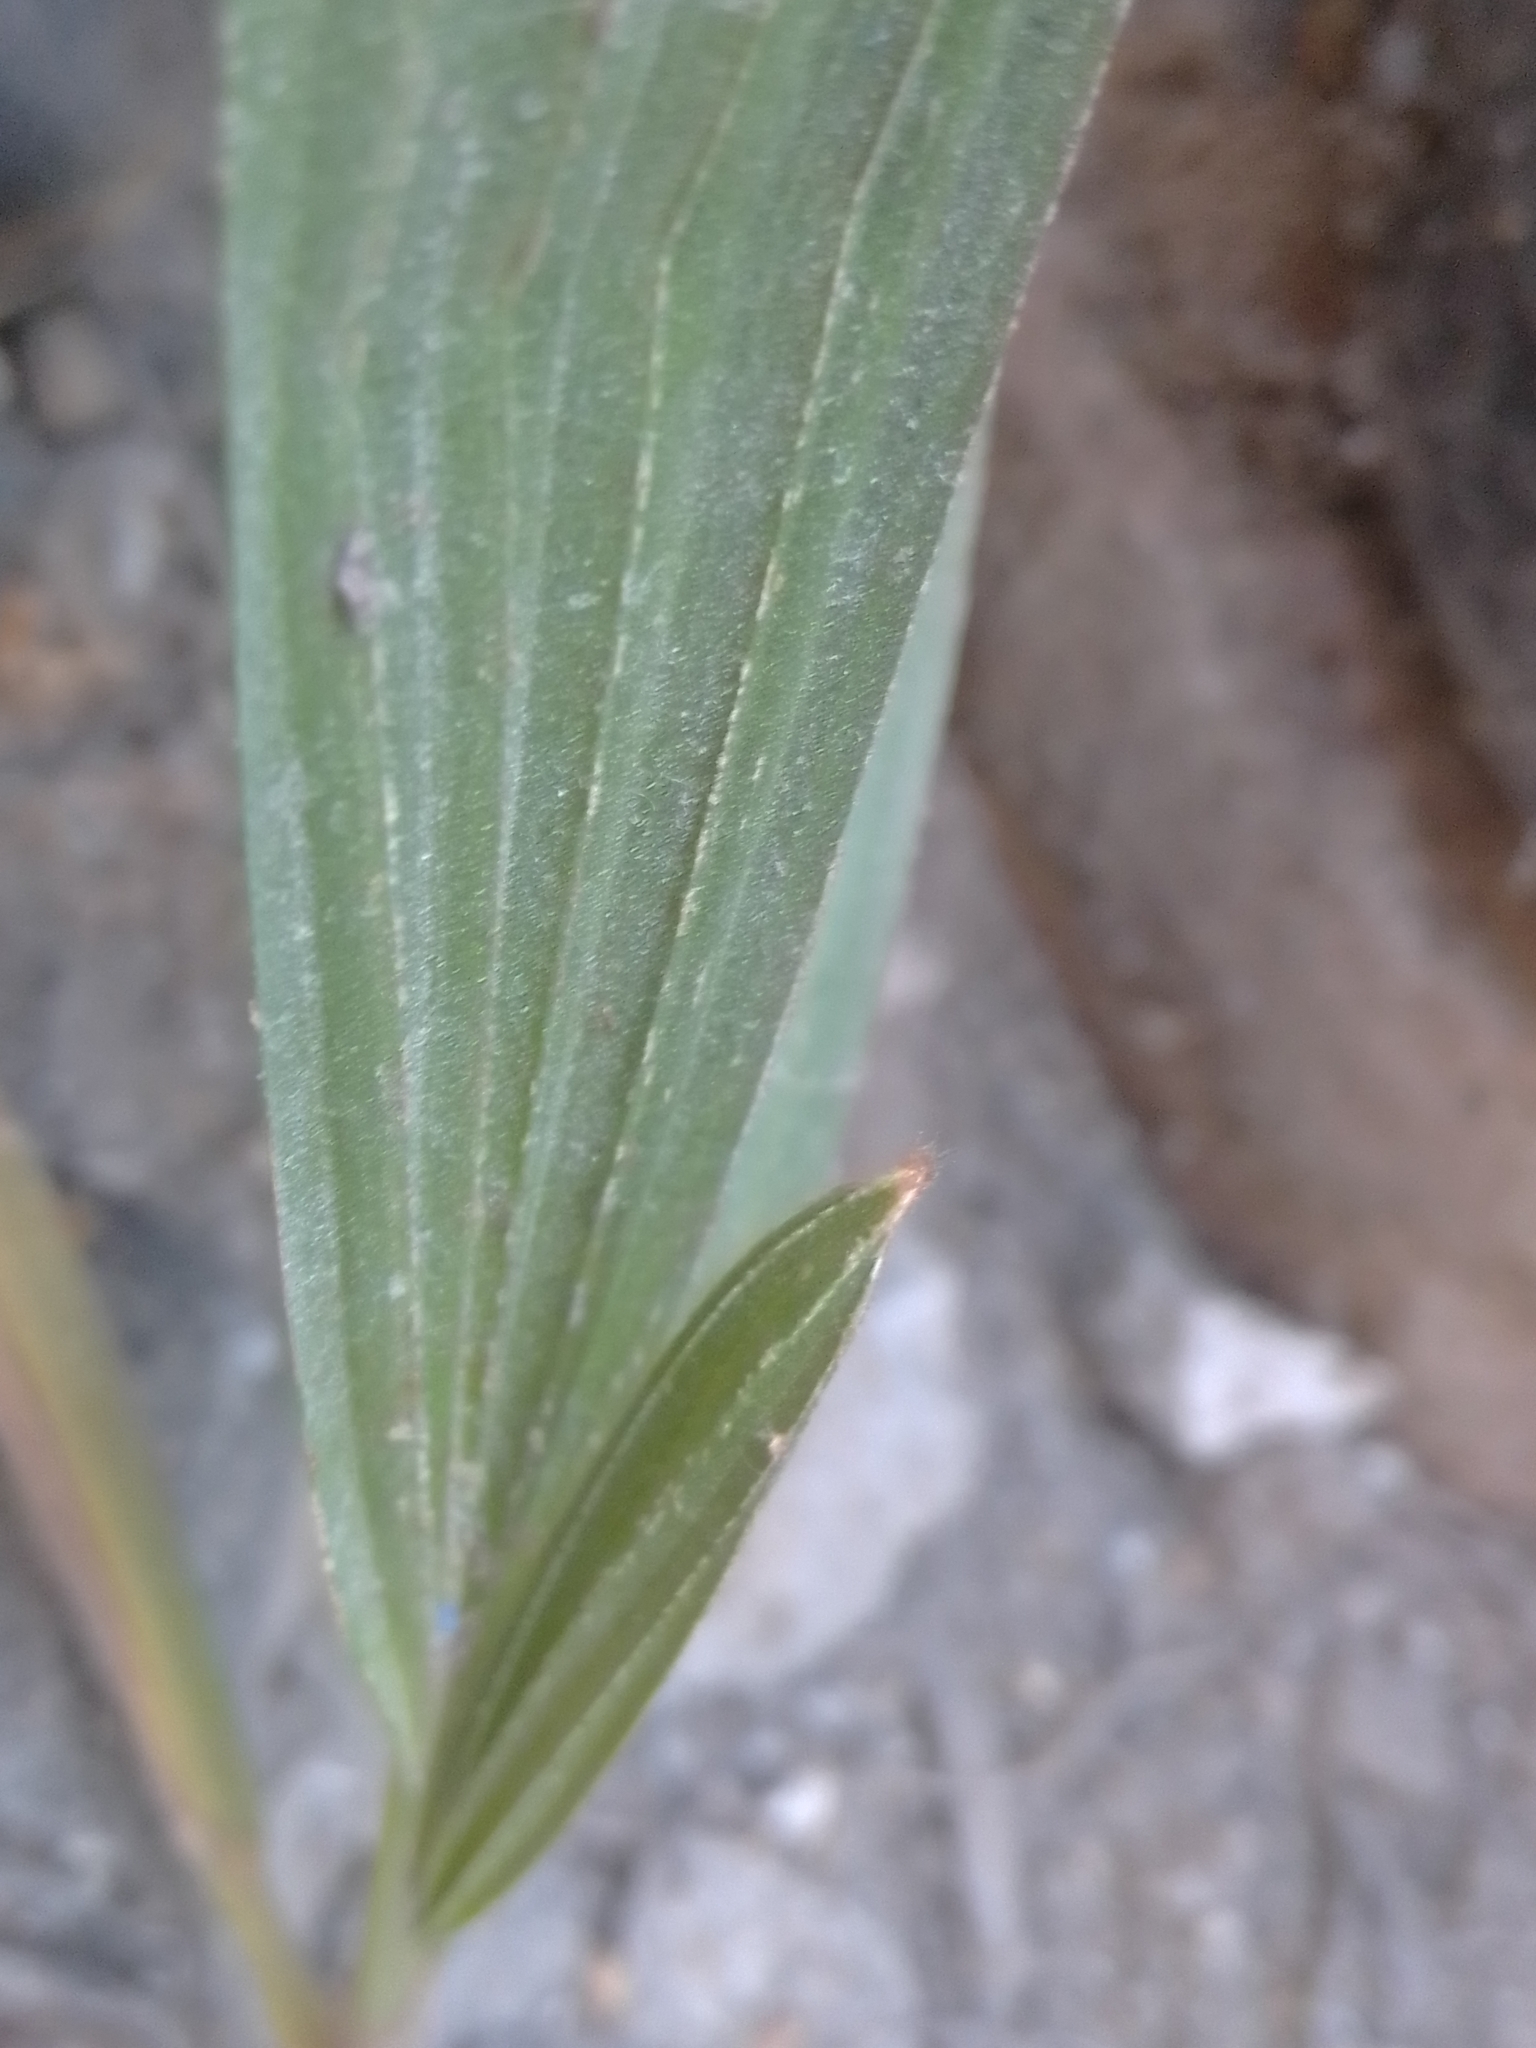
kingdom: Plantae
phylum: Tracheophyta
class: Liliopsida
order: Arecales
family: Arecaceae
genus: Washingtonia
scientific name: Washingtonia robusta
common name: Mexican fan palm
